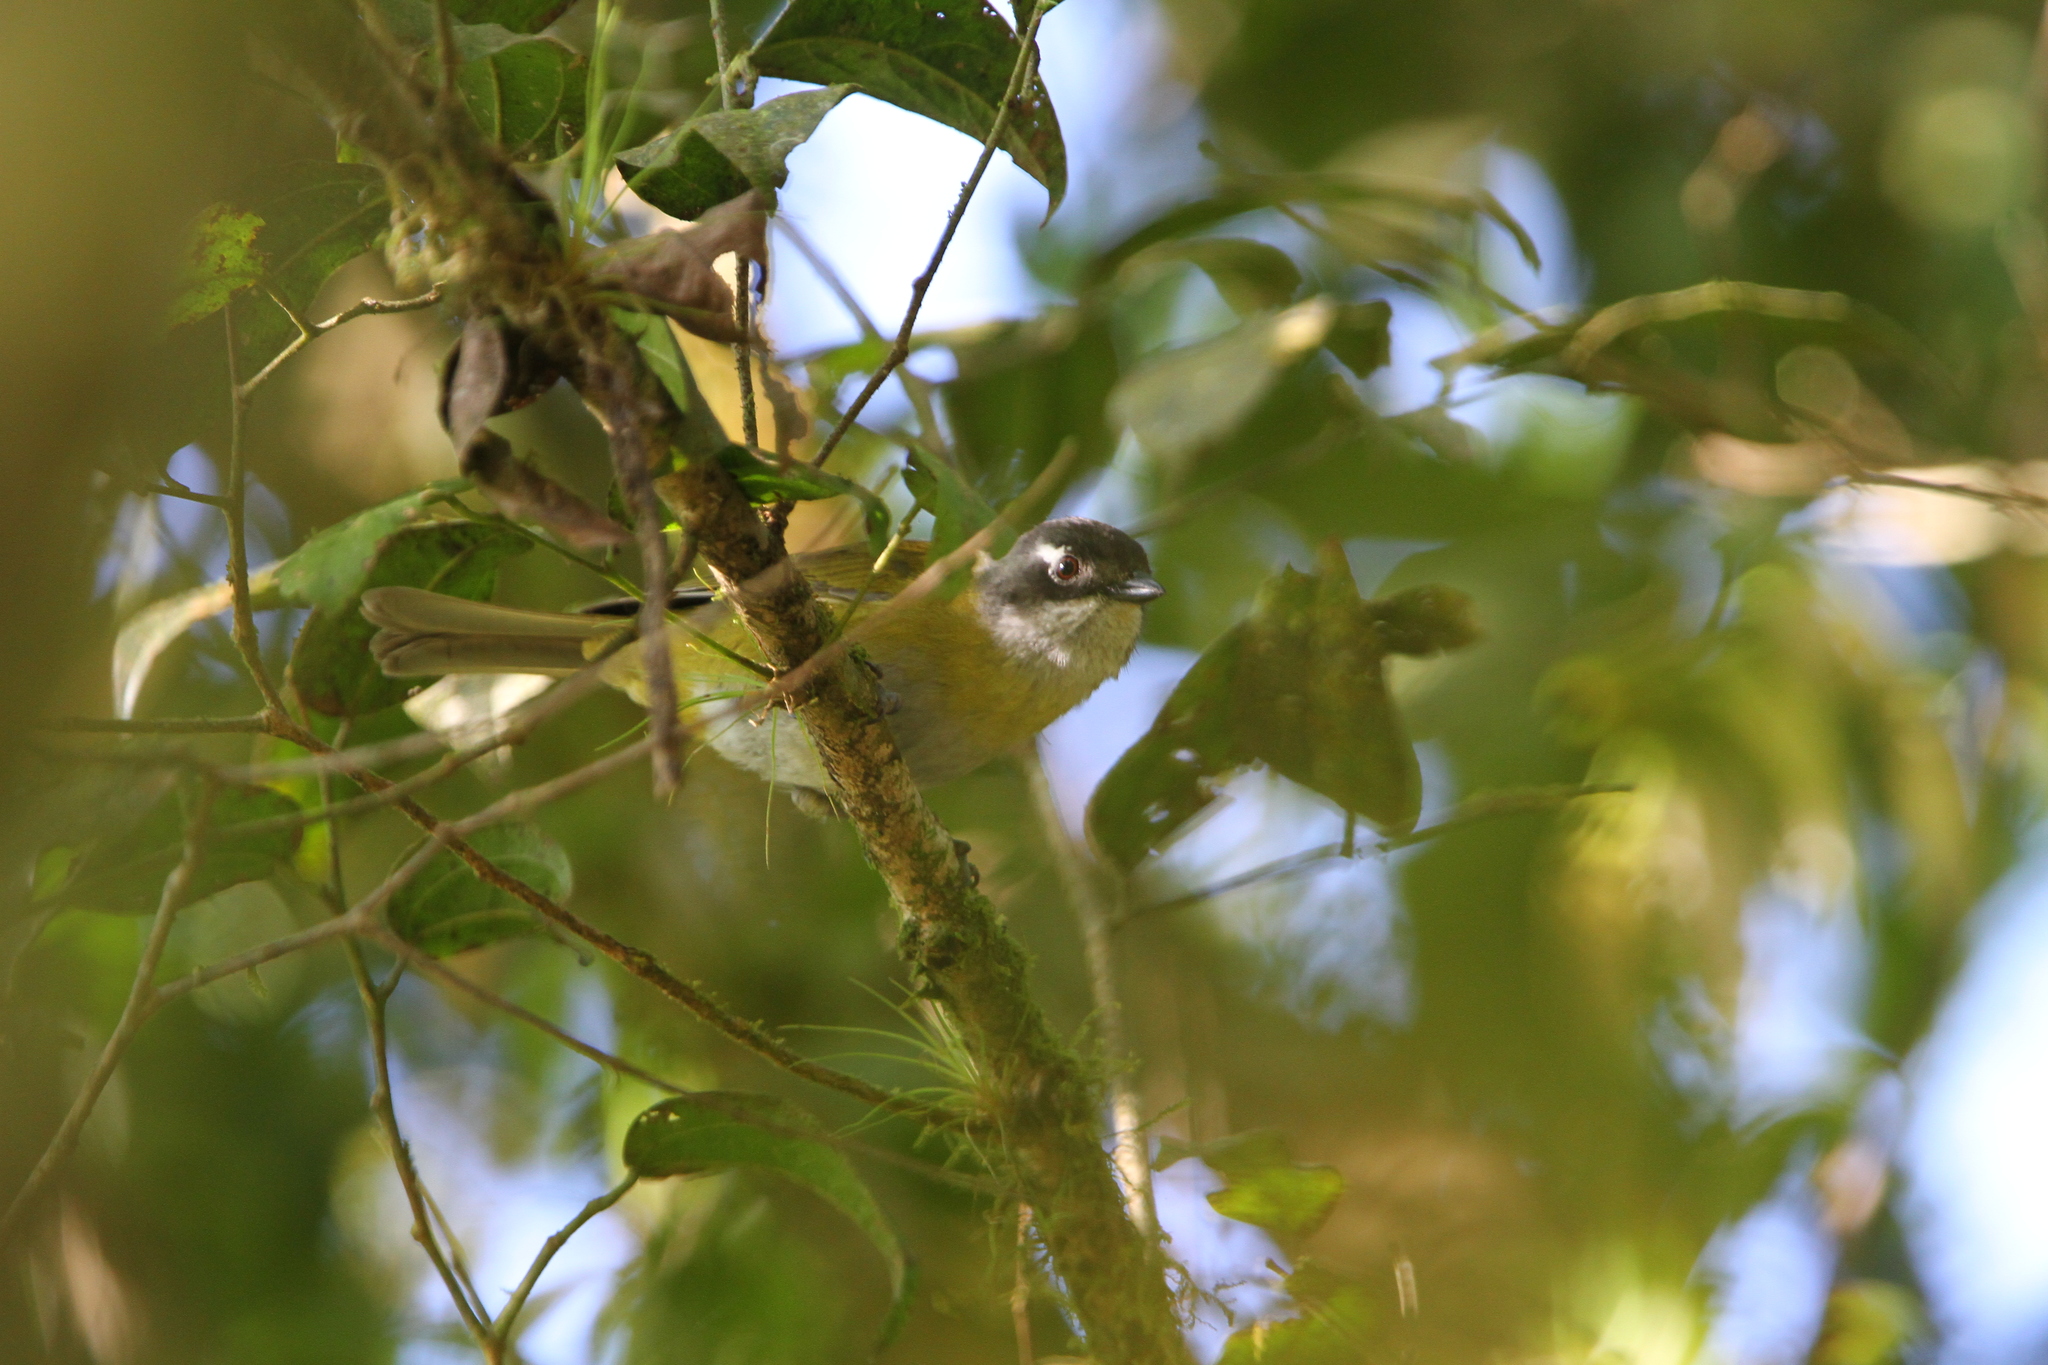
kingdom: Animalia
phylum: Chordata
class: Aves
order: Passeriformes
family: Passerellidae
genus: Chlorospingus
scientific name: Chlorospingus flavopectus
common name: Common chlorospingus
